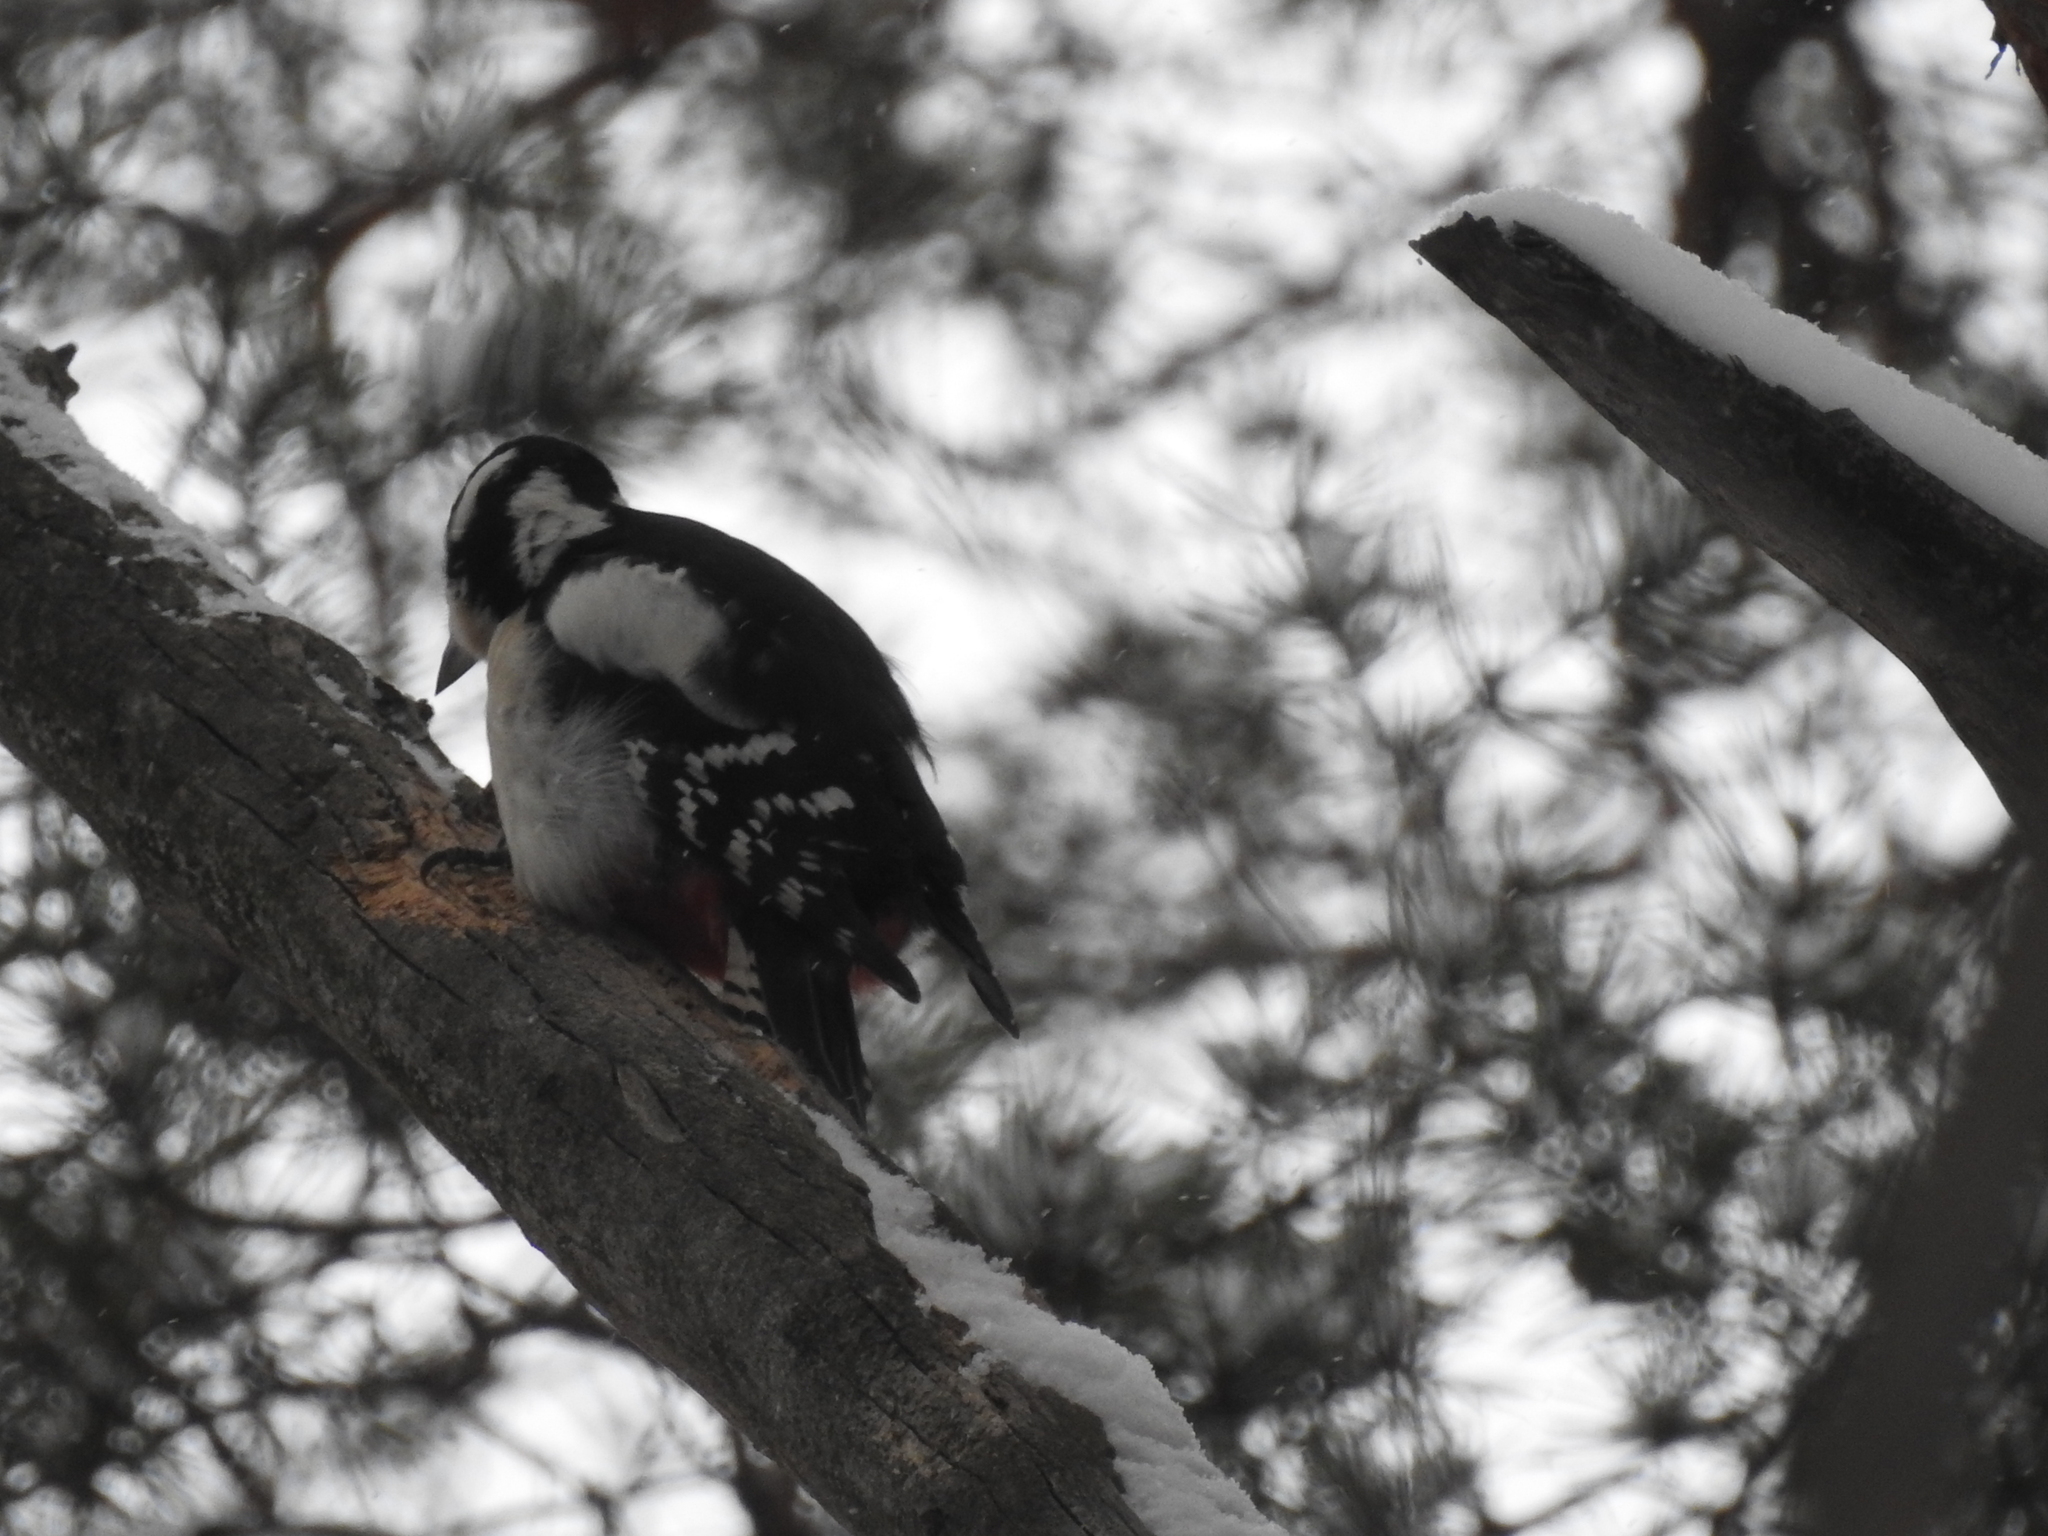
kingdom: Animalia
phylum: Chordata
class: Aves
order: Piciformes
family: Picidae
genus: Dendrocopos
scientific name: Dendrocopos major
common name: Great spotted woodpecker
